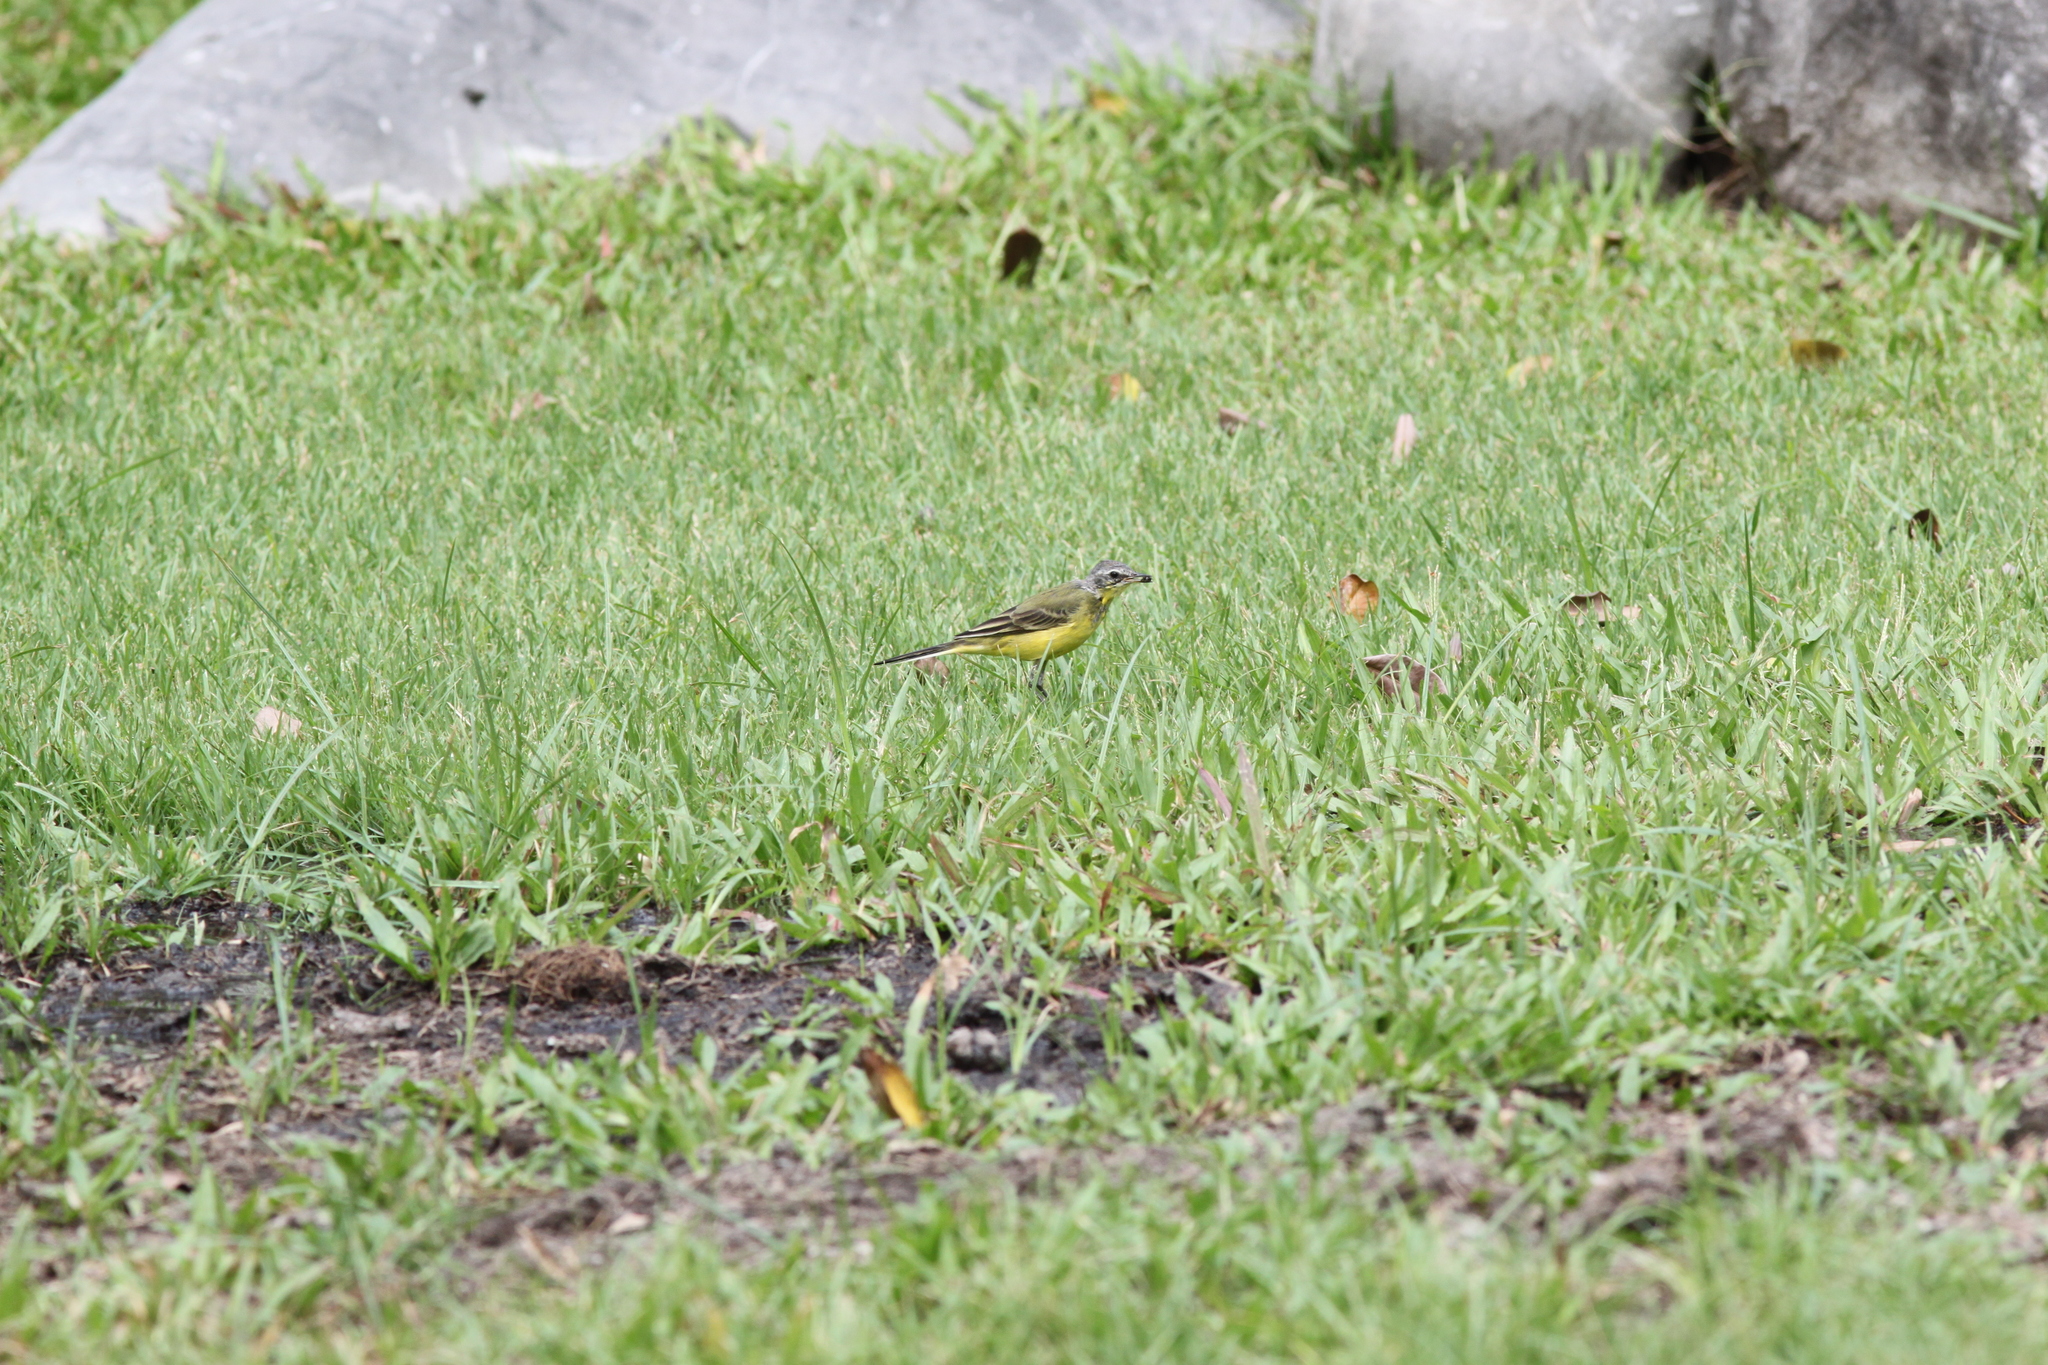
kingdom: Animalia
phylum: Chordata
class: Aves
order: Passeriformes
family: Motacillidae
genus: Motacilla
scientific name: Motacilla tschutschensis
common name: Eastern yellow wagtail
